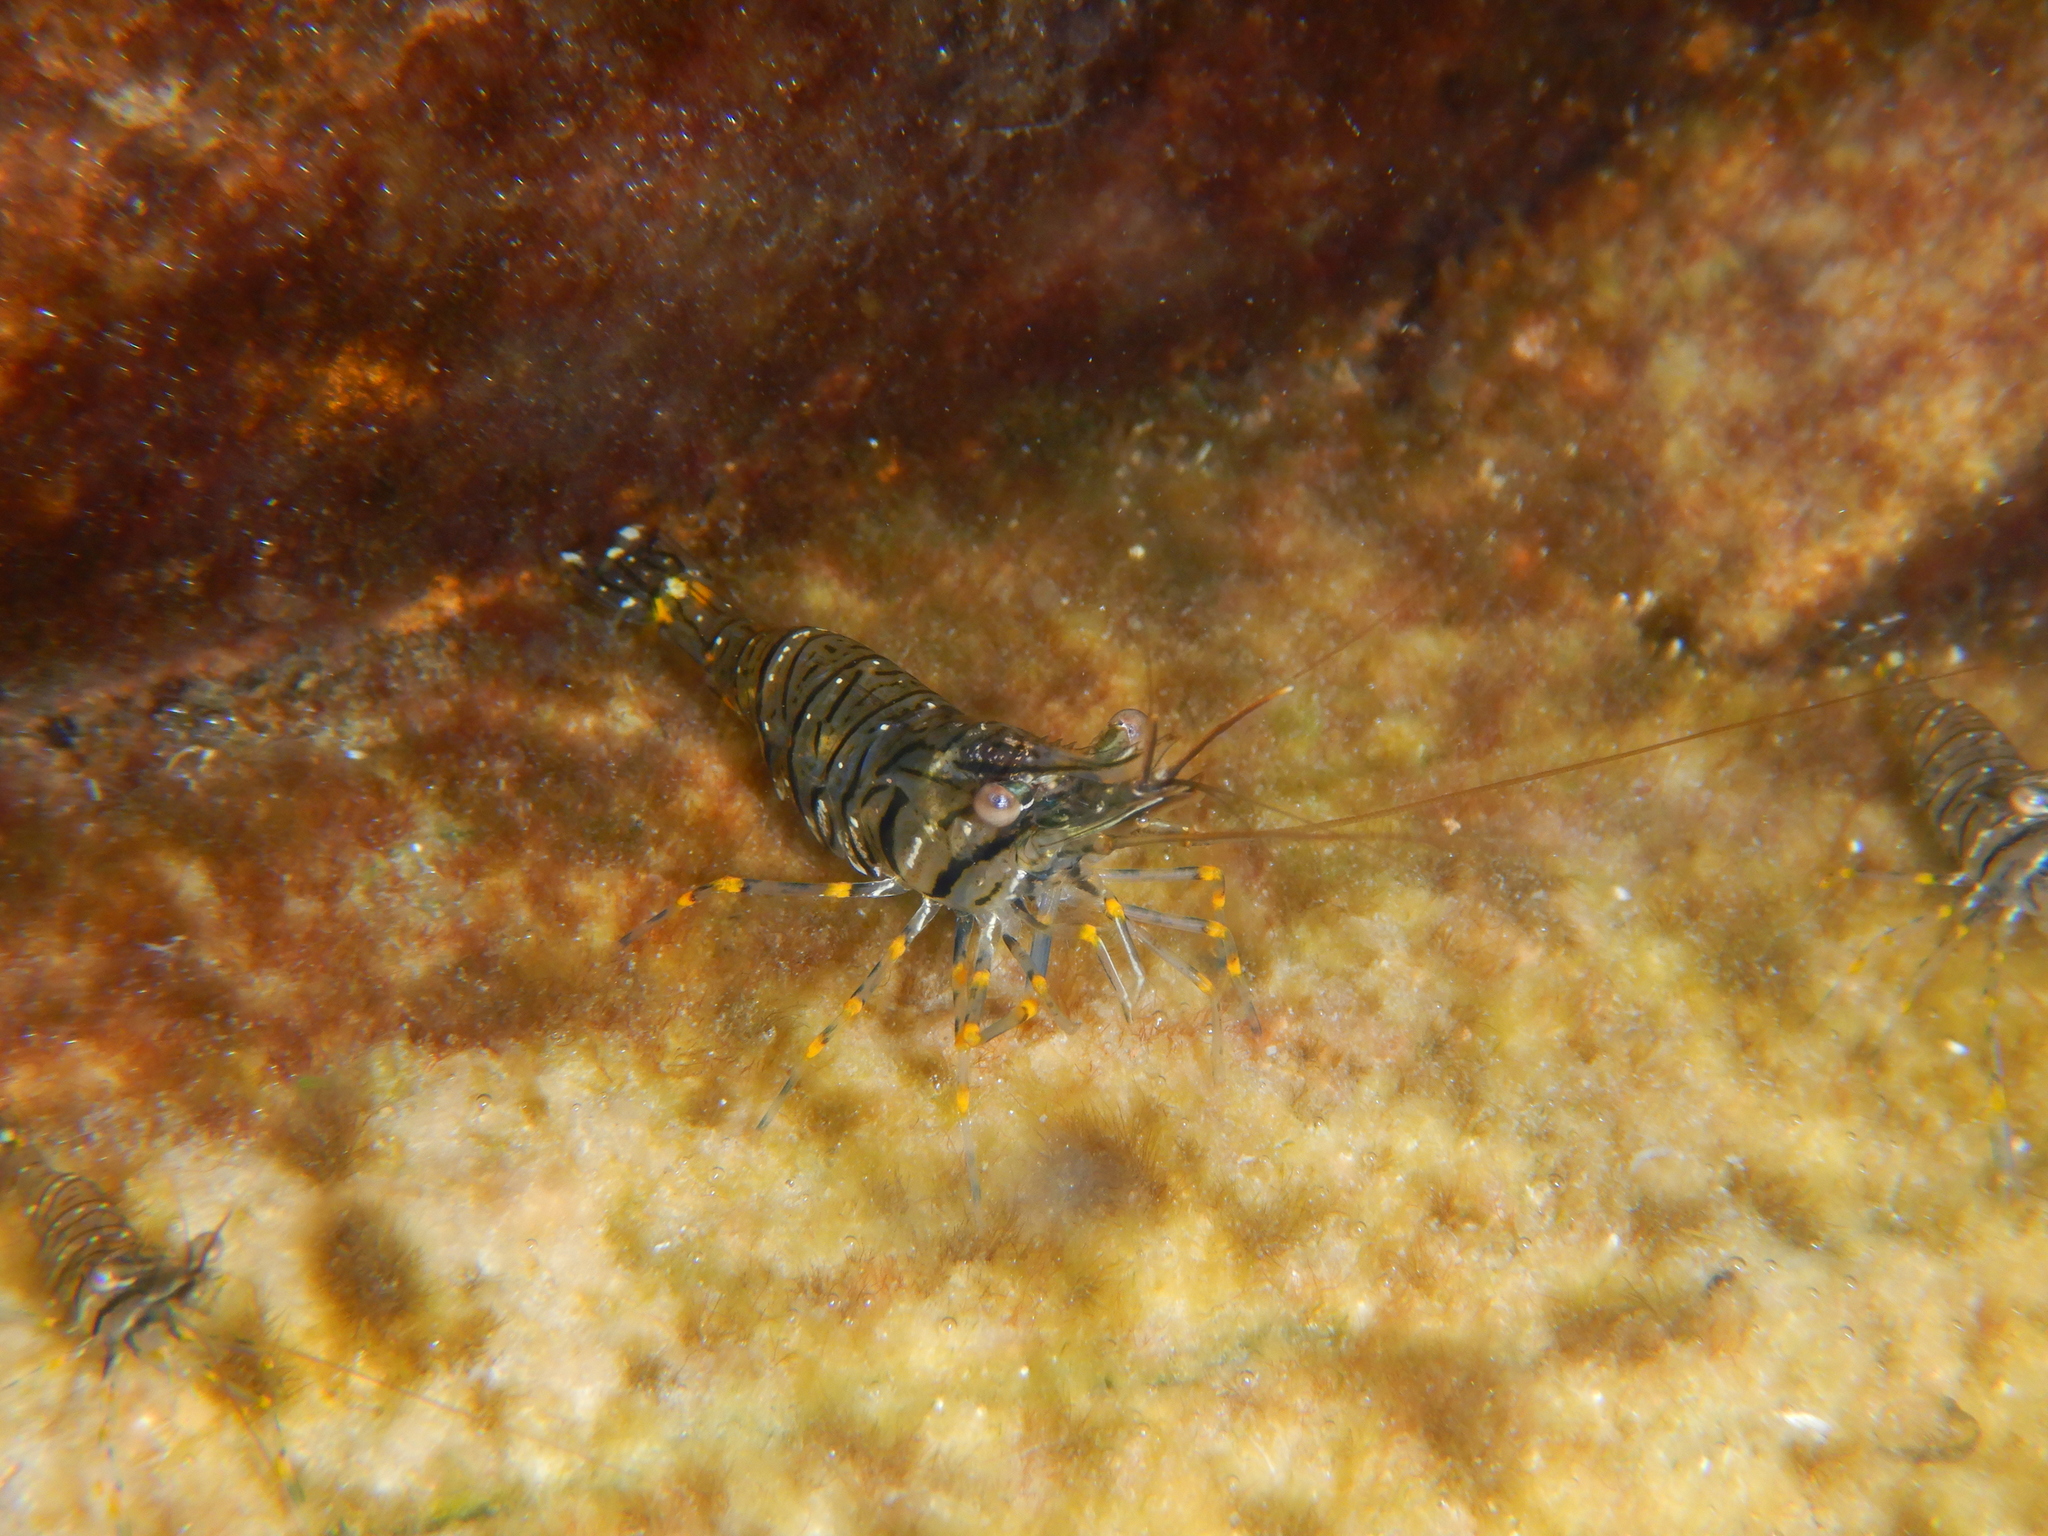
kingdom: Animalia
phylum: Arthropoda
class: Malacostraca
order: Decapoda
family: Palaemonidae
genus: Palaemon
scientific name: Palaemon elegans
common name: Grass prawm
